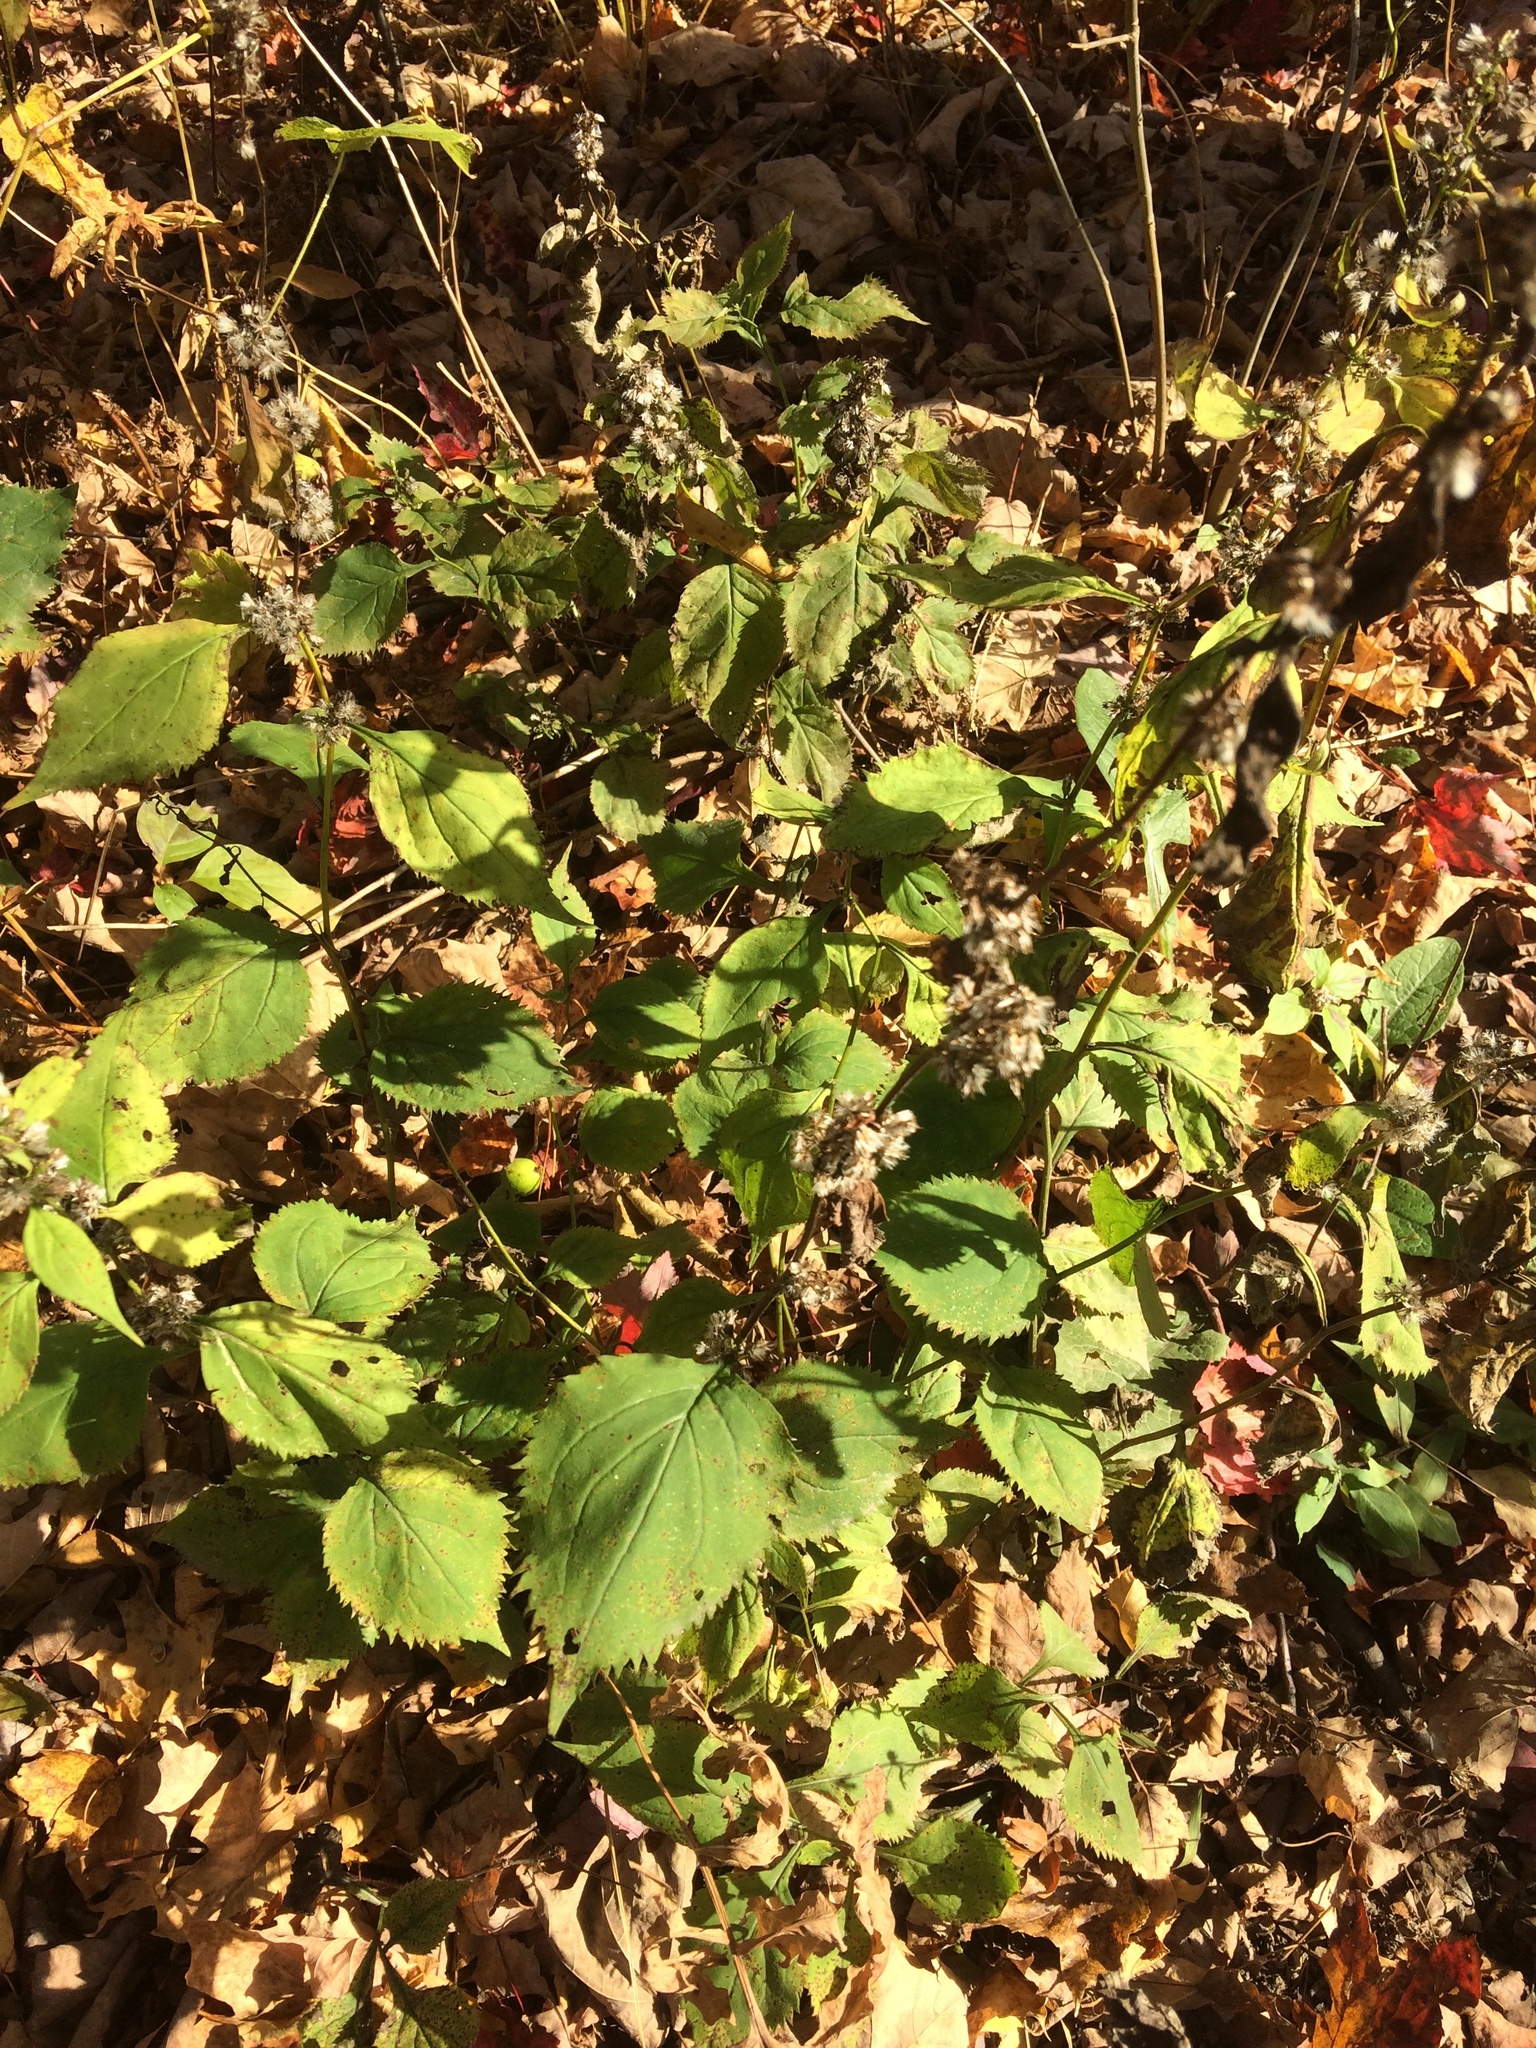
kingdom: Plantae
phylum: Tracheophyta
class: Magnoliopsida
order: Asterales
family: Asteraceae
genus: Solidago
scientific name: Solidago flexicaulis
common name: Zig-zag goldenrod
